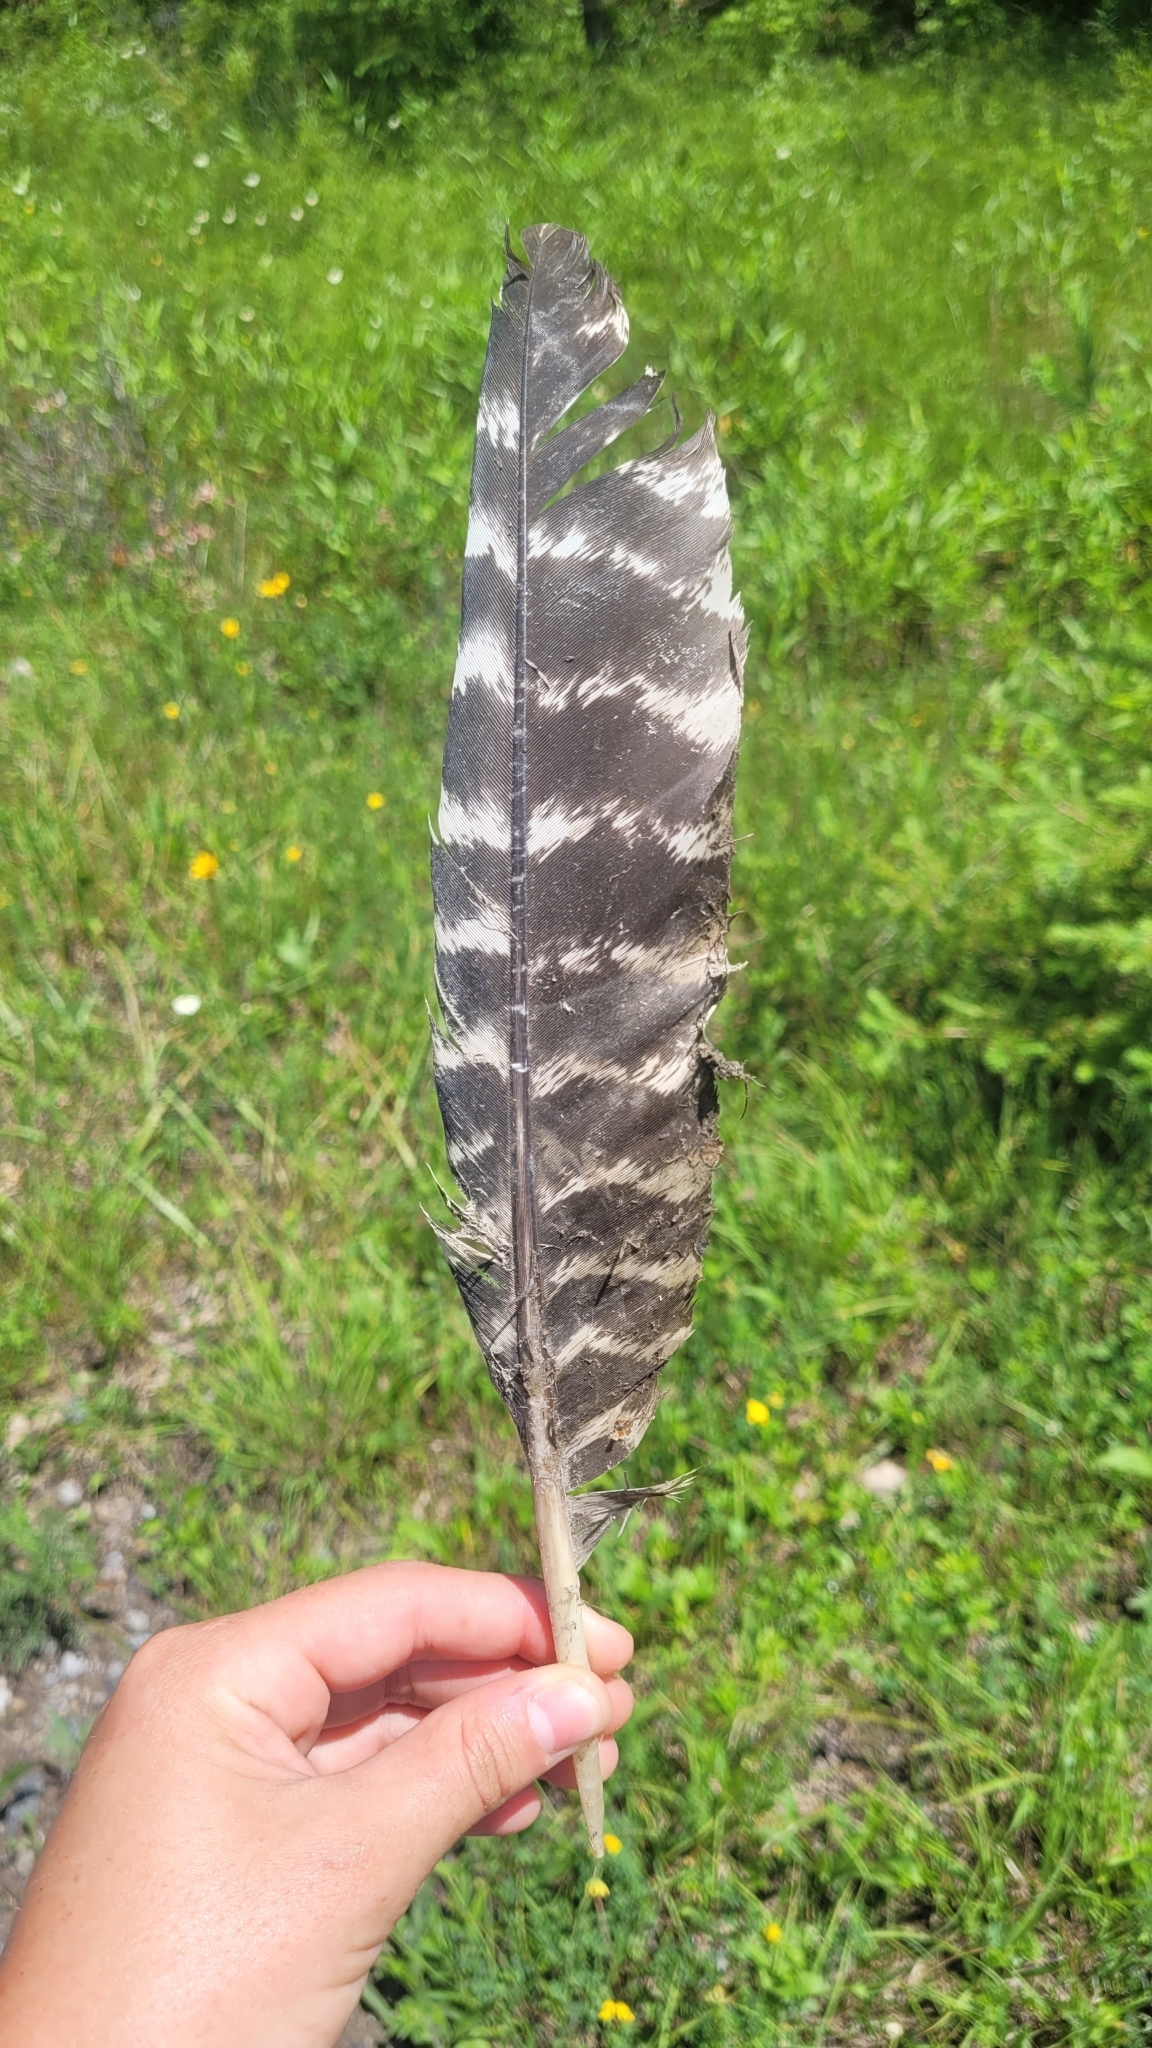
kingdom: Animalia
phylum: Chordata
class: Aves
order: Galliformes
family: Phasianidae
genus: Meleagris
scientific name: Meleagris gallopavo
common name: Wild turkey
